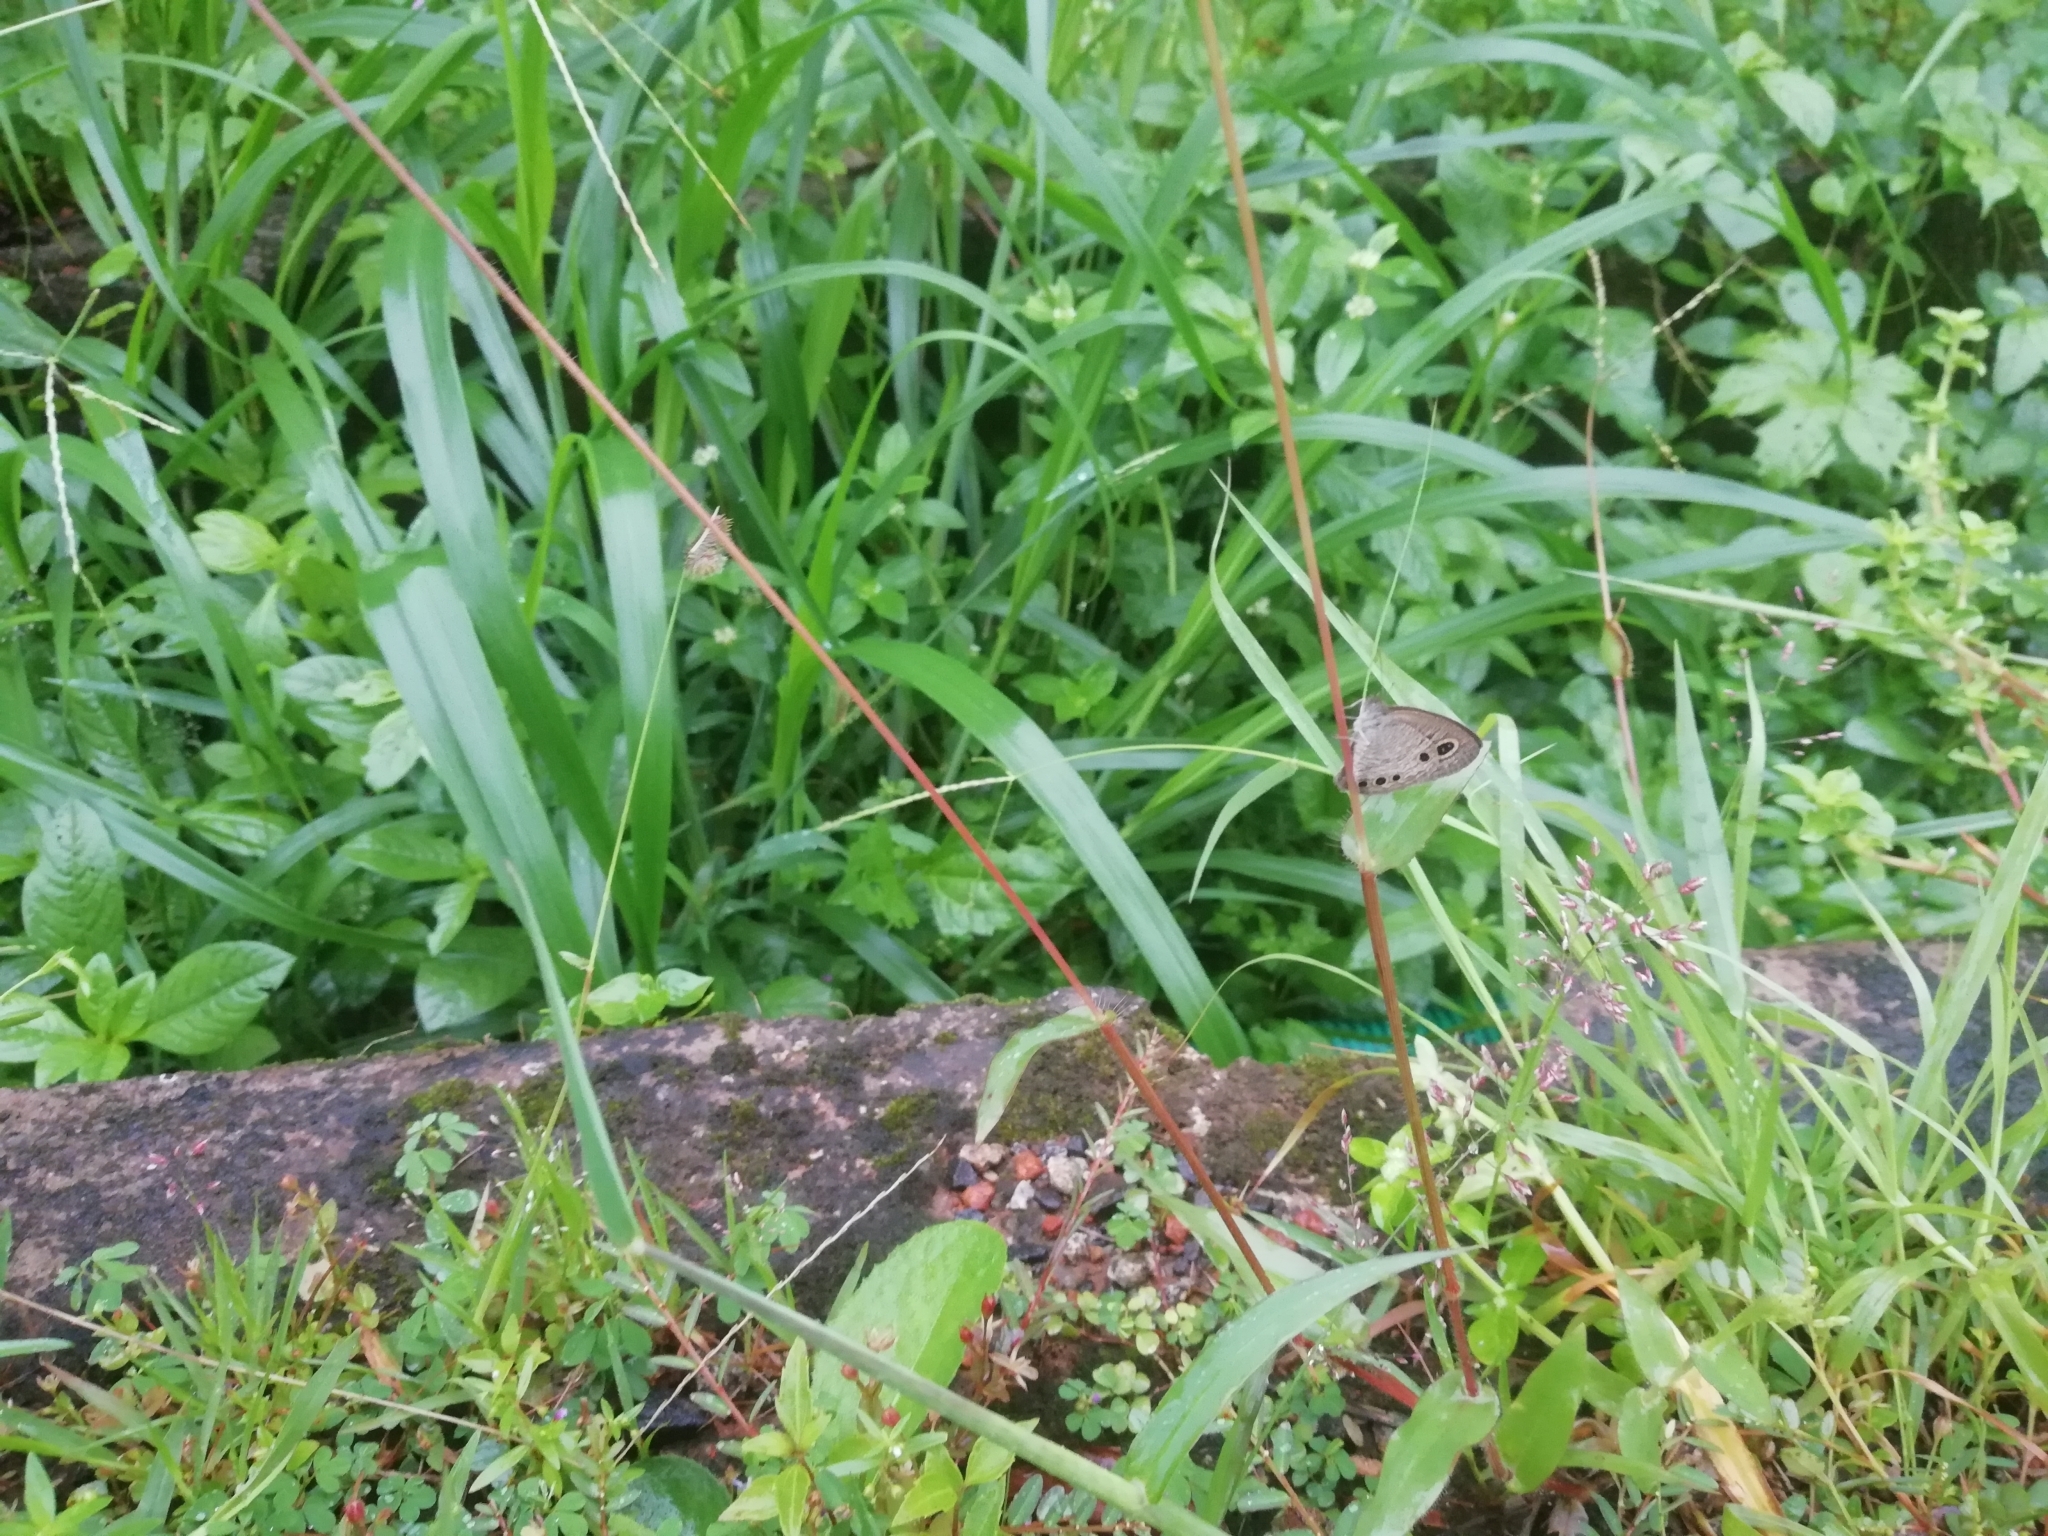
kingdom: Animalia
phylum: Arthropoda
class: Insecta
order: Lepidoptera
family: Nymphalidae
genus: Ypthima
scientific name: Ypthima huebneri
